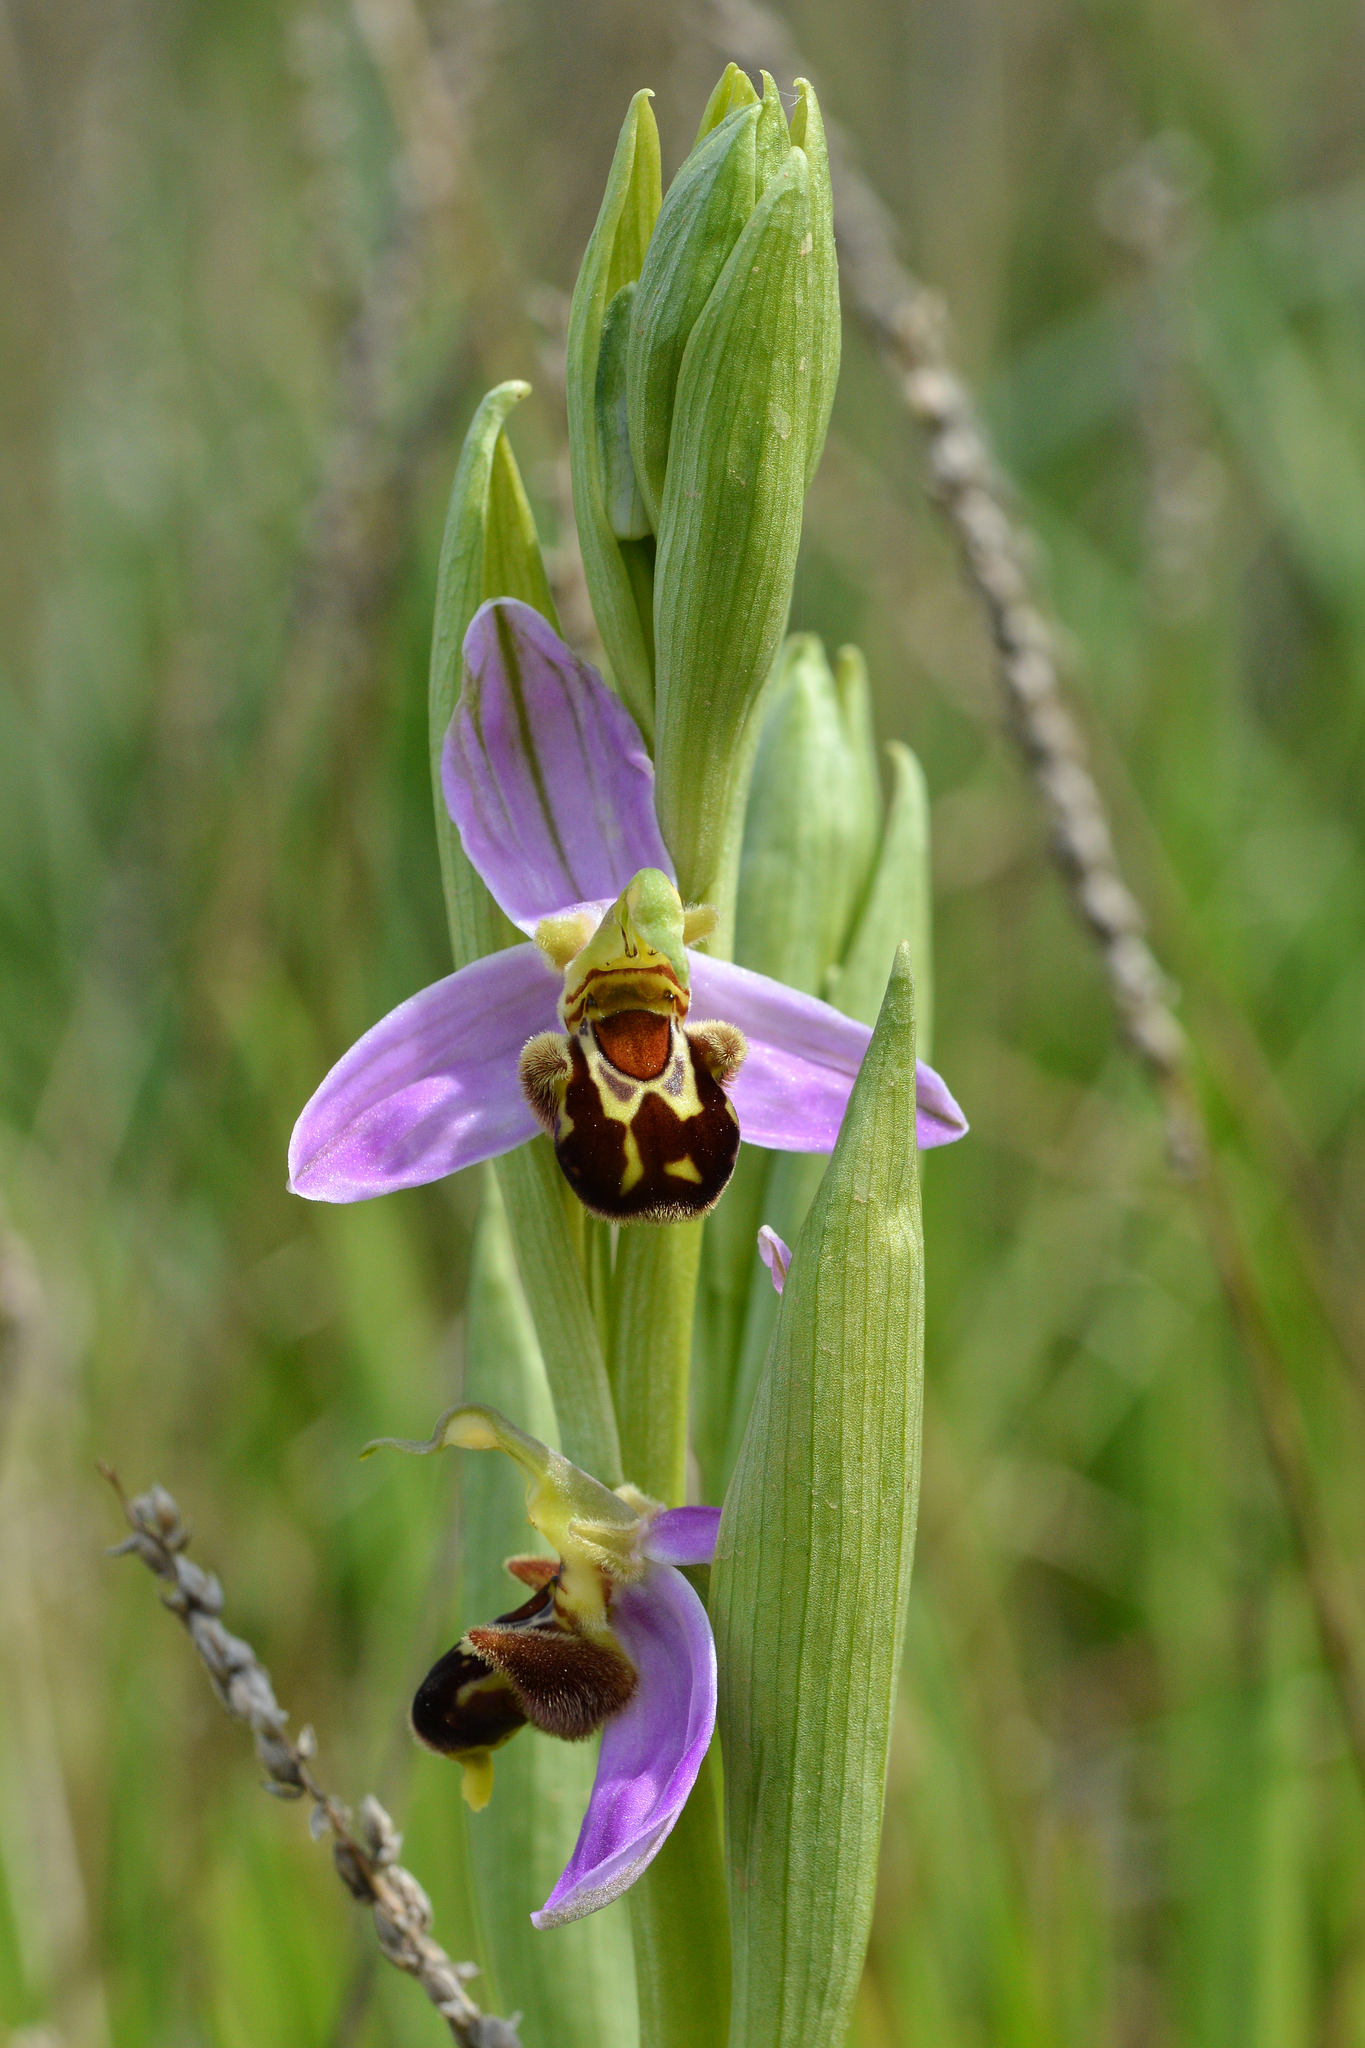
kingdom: Plantae
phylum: Tracheophyta
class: Liliopsida
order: Asparagales
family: Orchidaceae
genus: Ophrys
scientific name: Ophrys apifera
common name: Bee orchid
